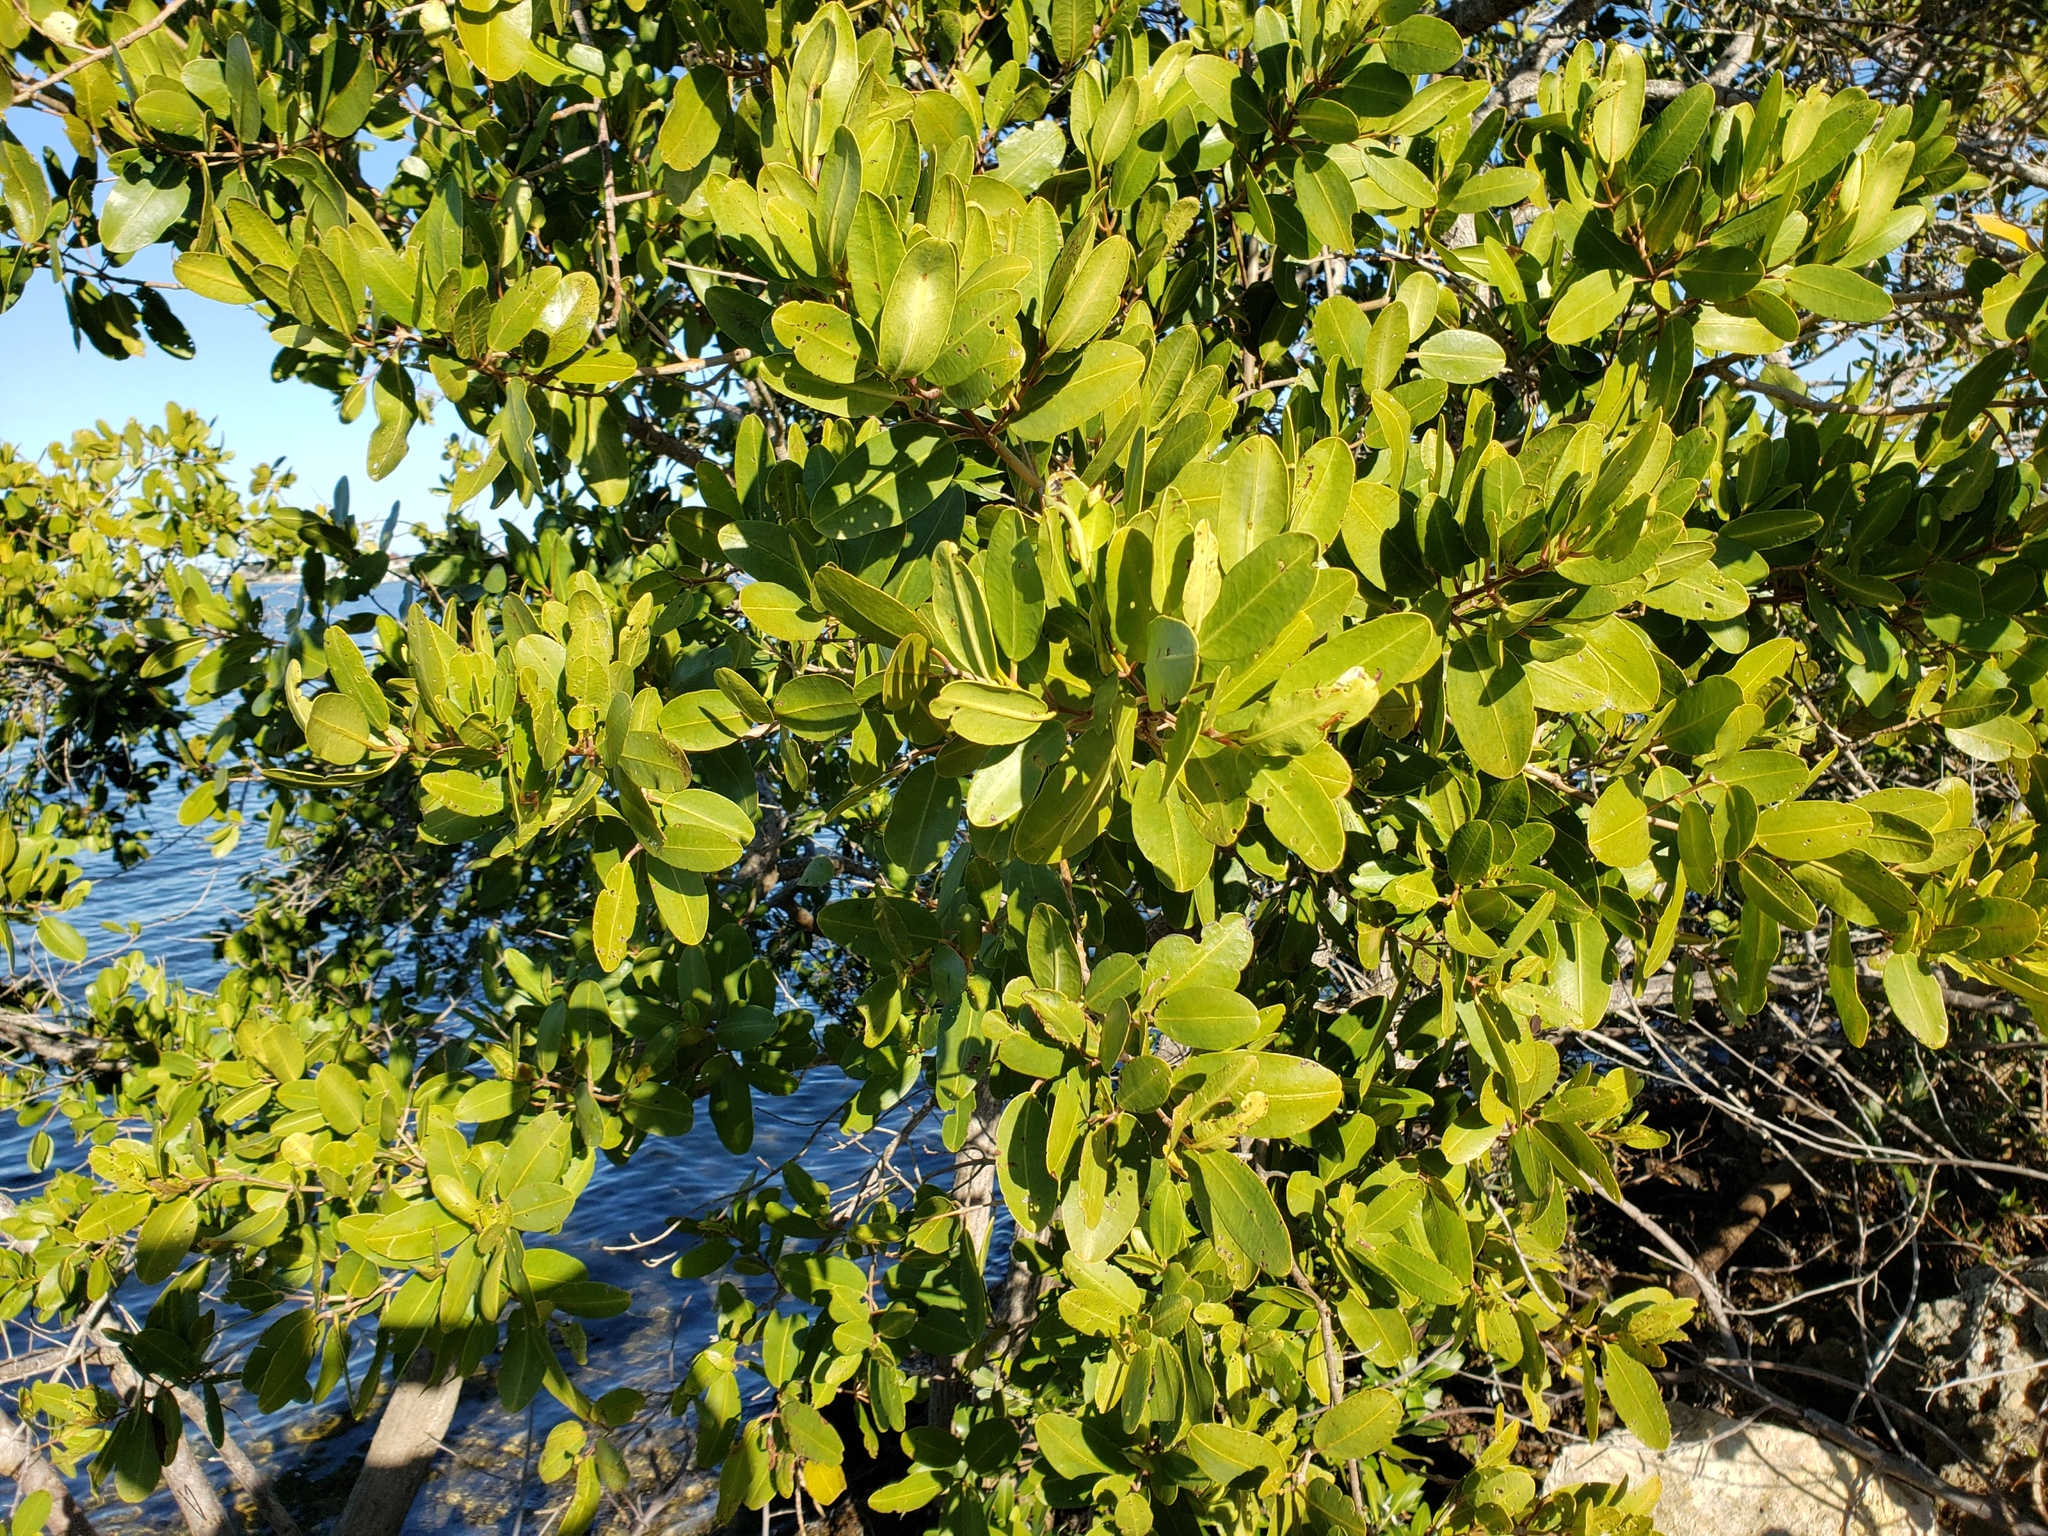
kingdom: Plantae
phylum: Tracheophyta
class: Magnoliopsida
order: Myrtales
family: Combretaceae
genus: Laguncularia
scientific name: Laguncularia racemosa
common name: White mangrove
